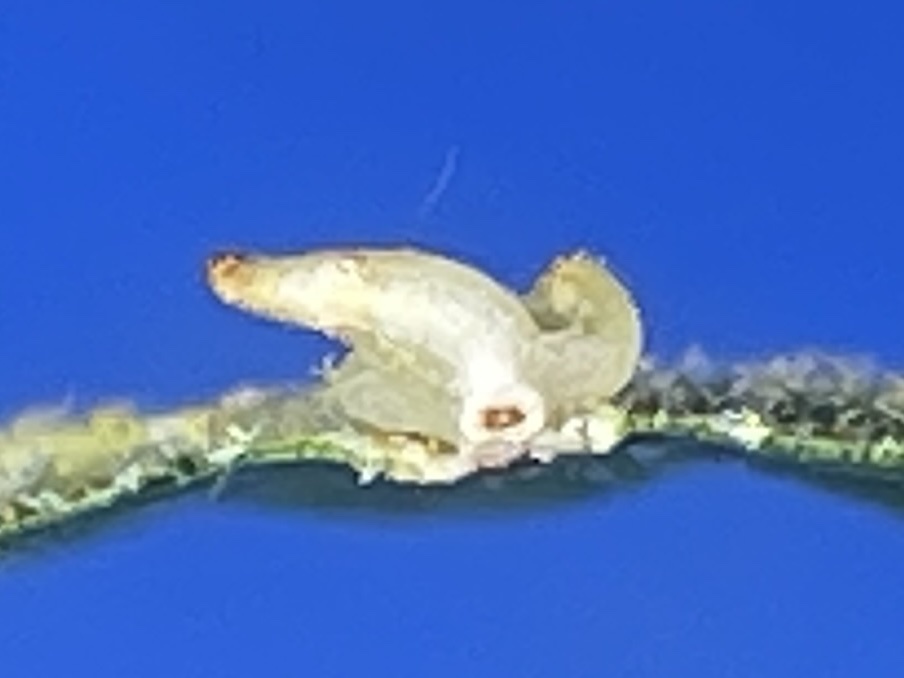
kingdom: Animalia
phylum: Arthropoda
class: Insecta
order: Diptera
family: Cecidomyiidae
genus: Caryomyia
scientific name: Caryomyia arcuata
